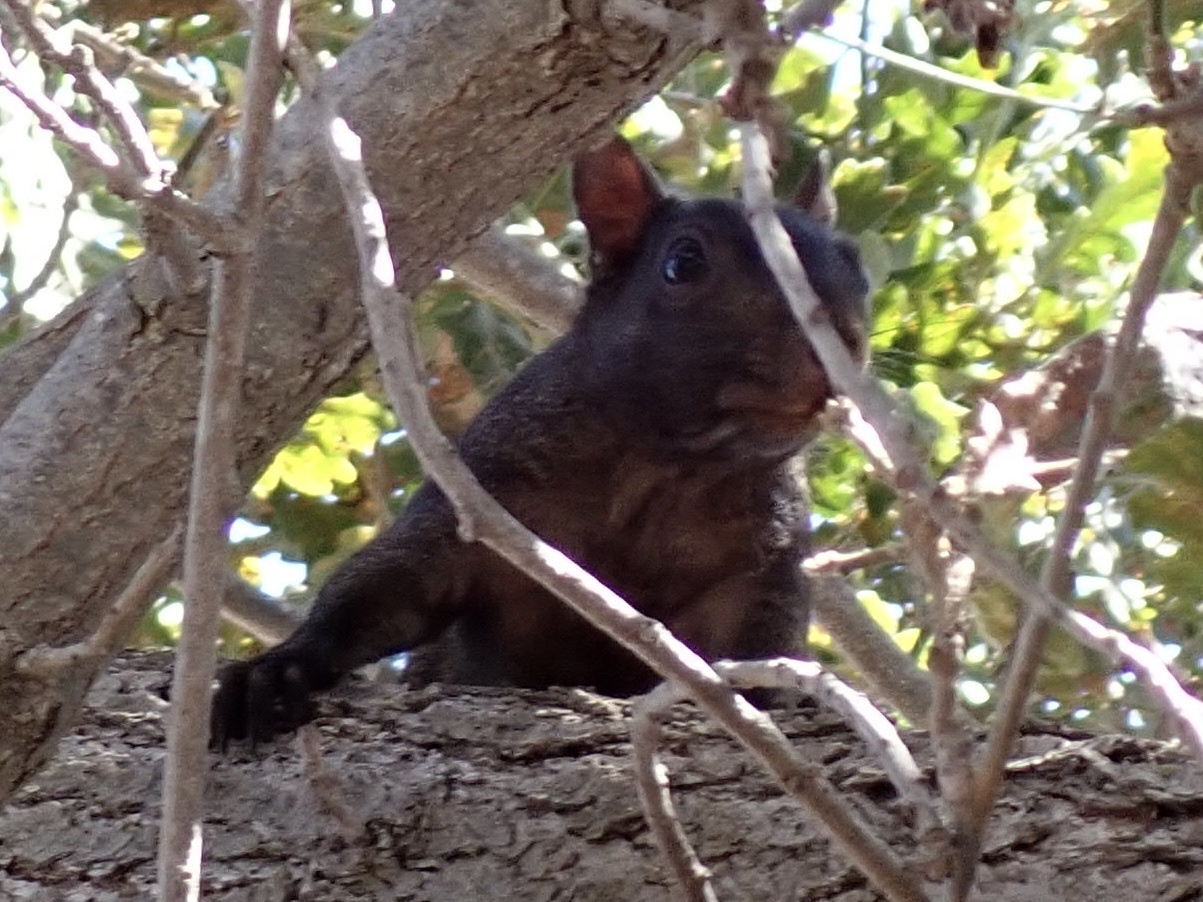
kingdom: Animalia
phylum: Chordata
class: Mammalia
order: Rodentia
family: Sciuridae
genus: Sciurus
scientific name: Sciurus carolinensis
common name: Eastern gray squirrel
